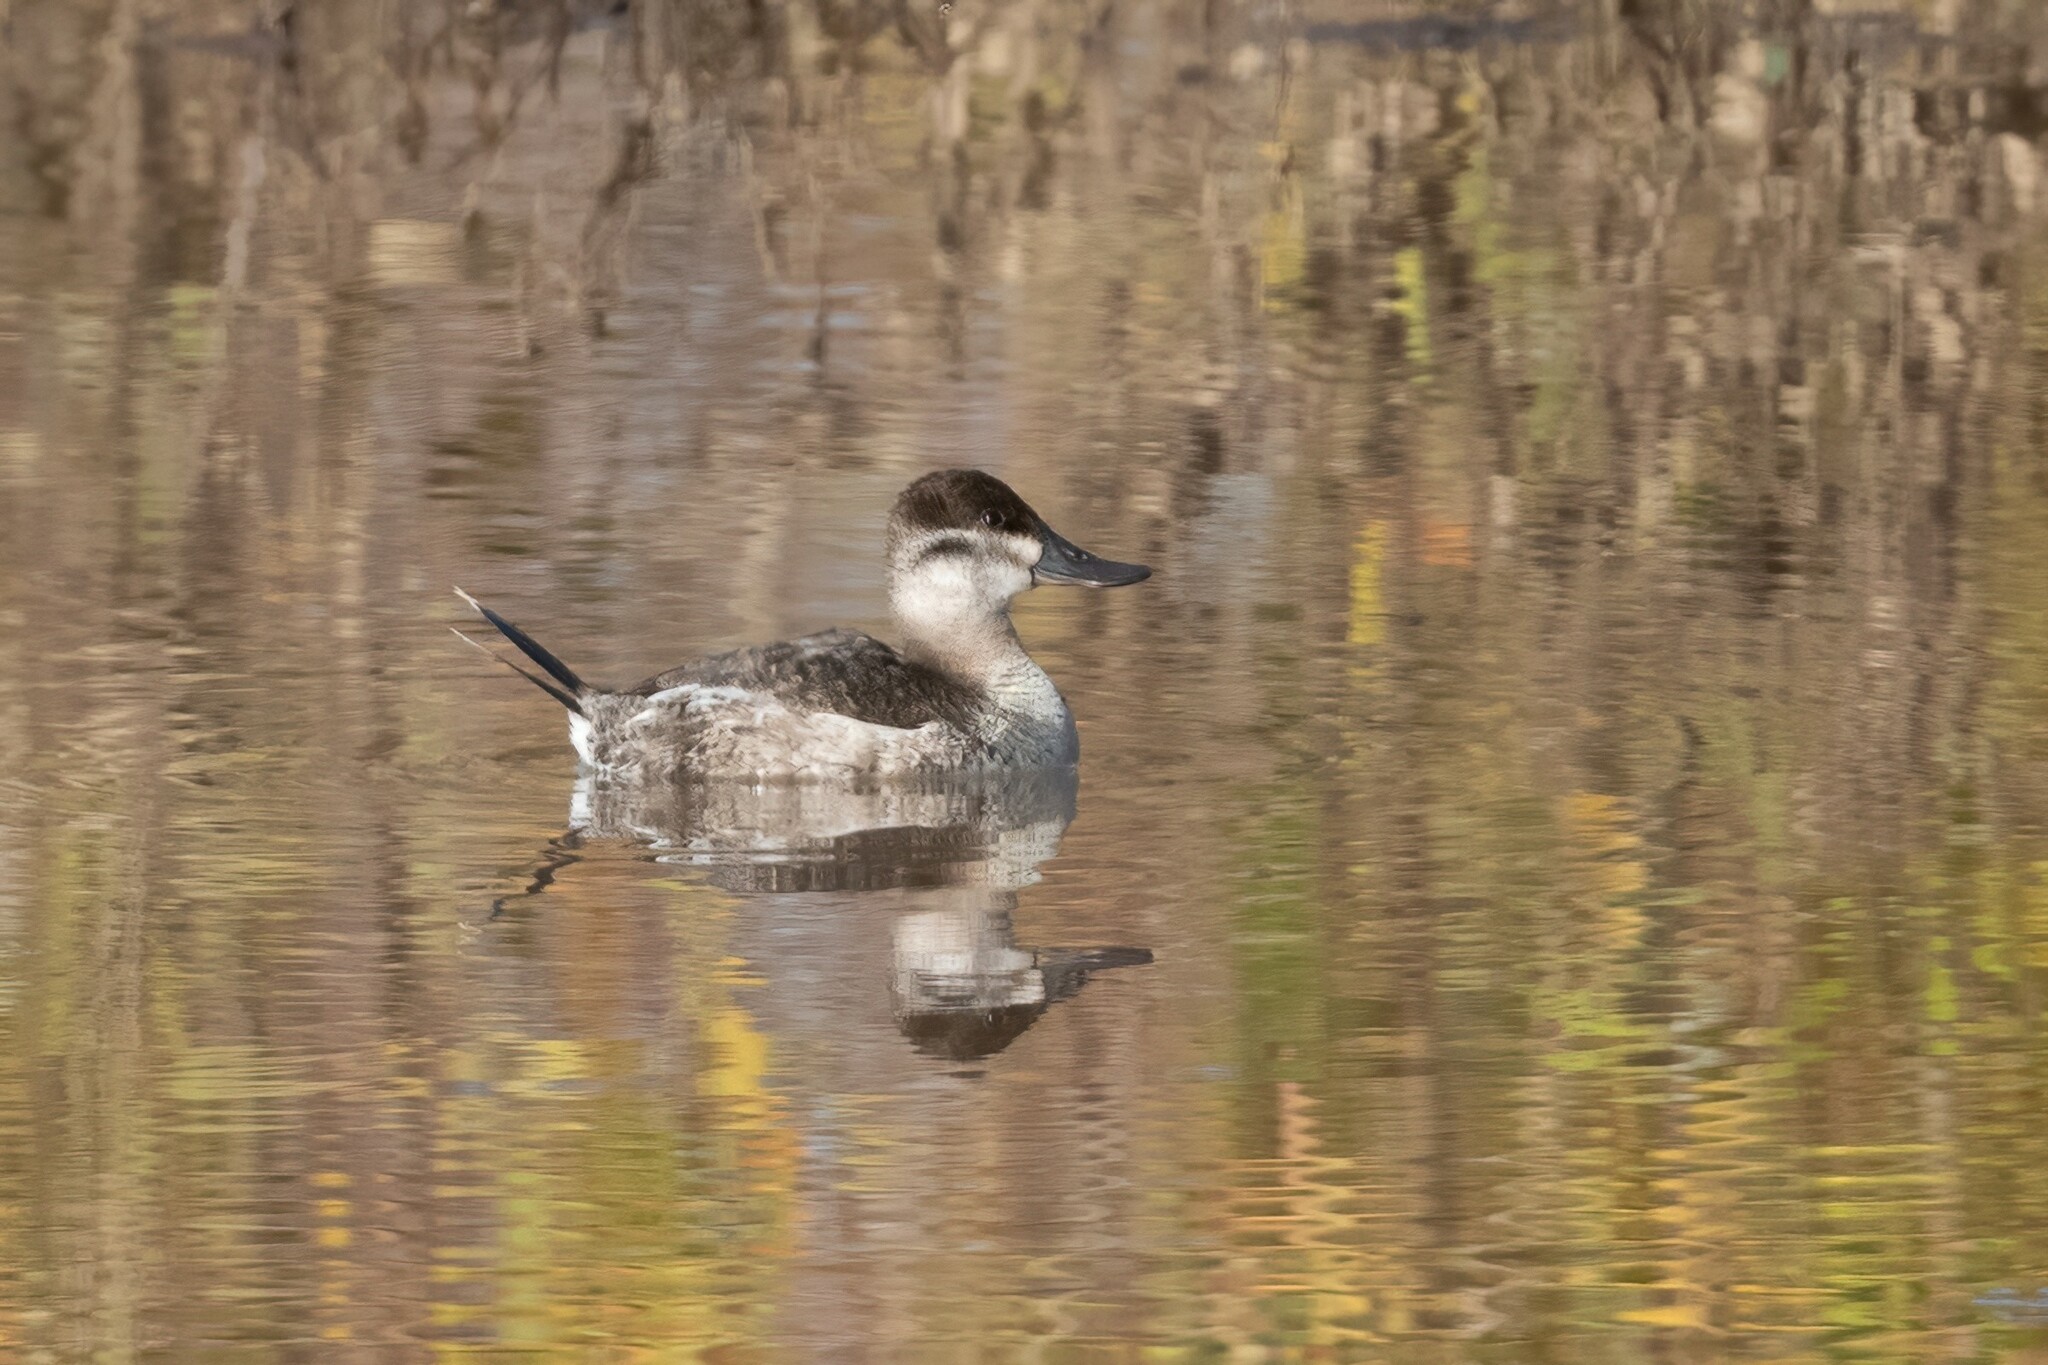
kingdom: Animalia
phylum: Chordata
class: Aves
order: Anseriformes
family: Anatidae
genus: Oxyura
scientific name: Oxyura jamaicensis
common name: Ruddy duck
